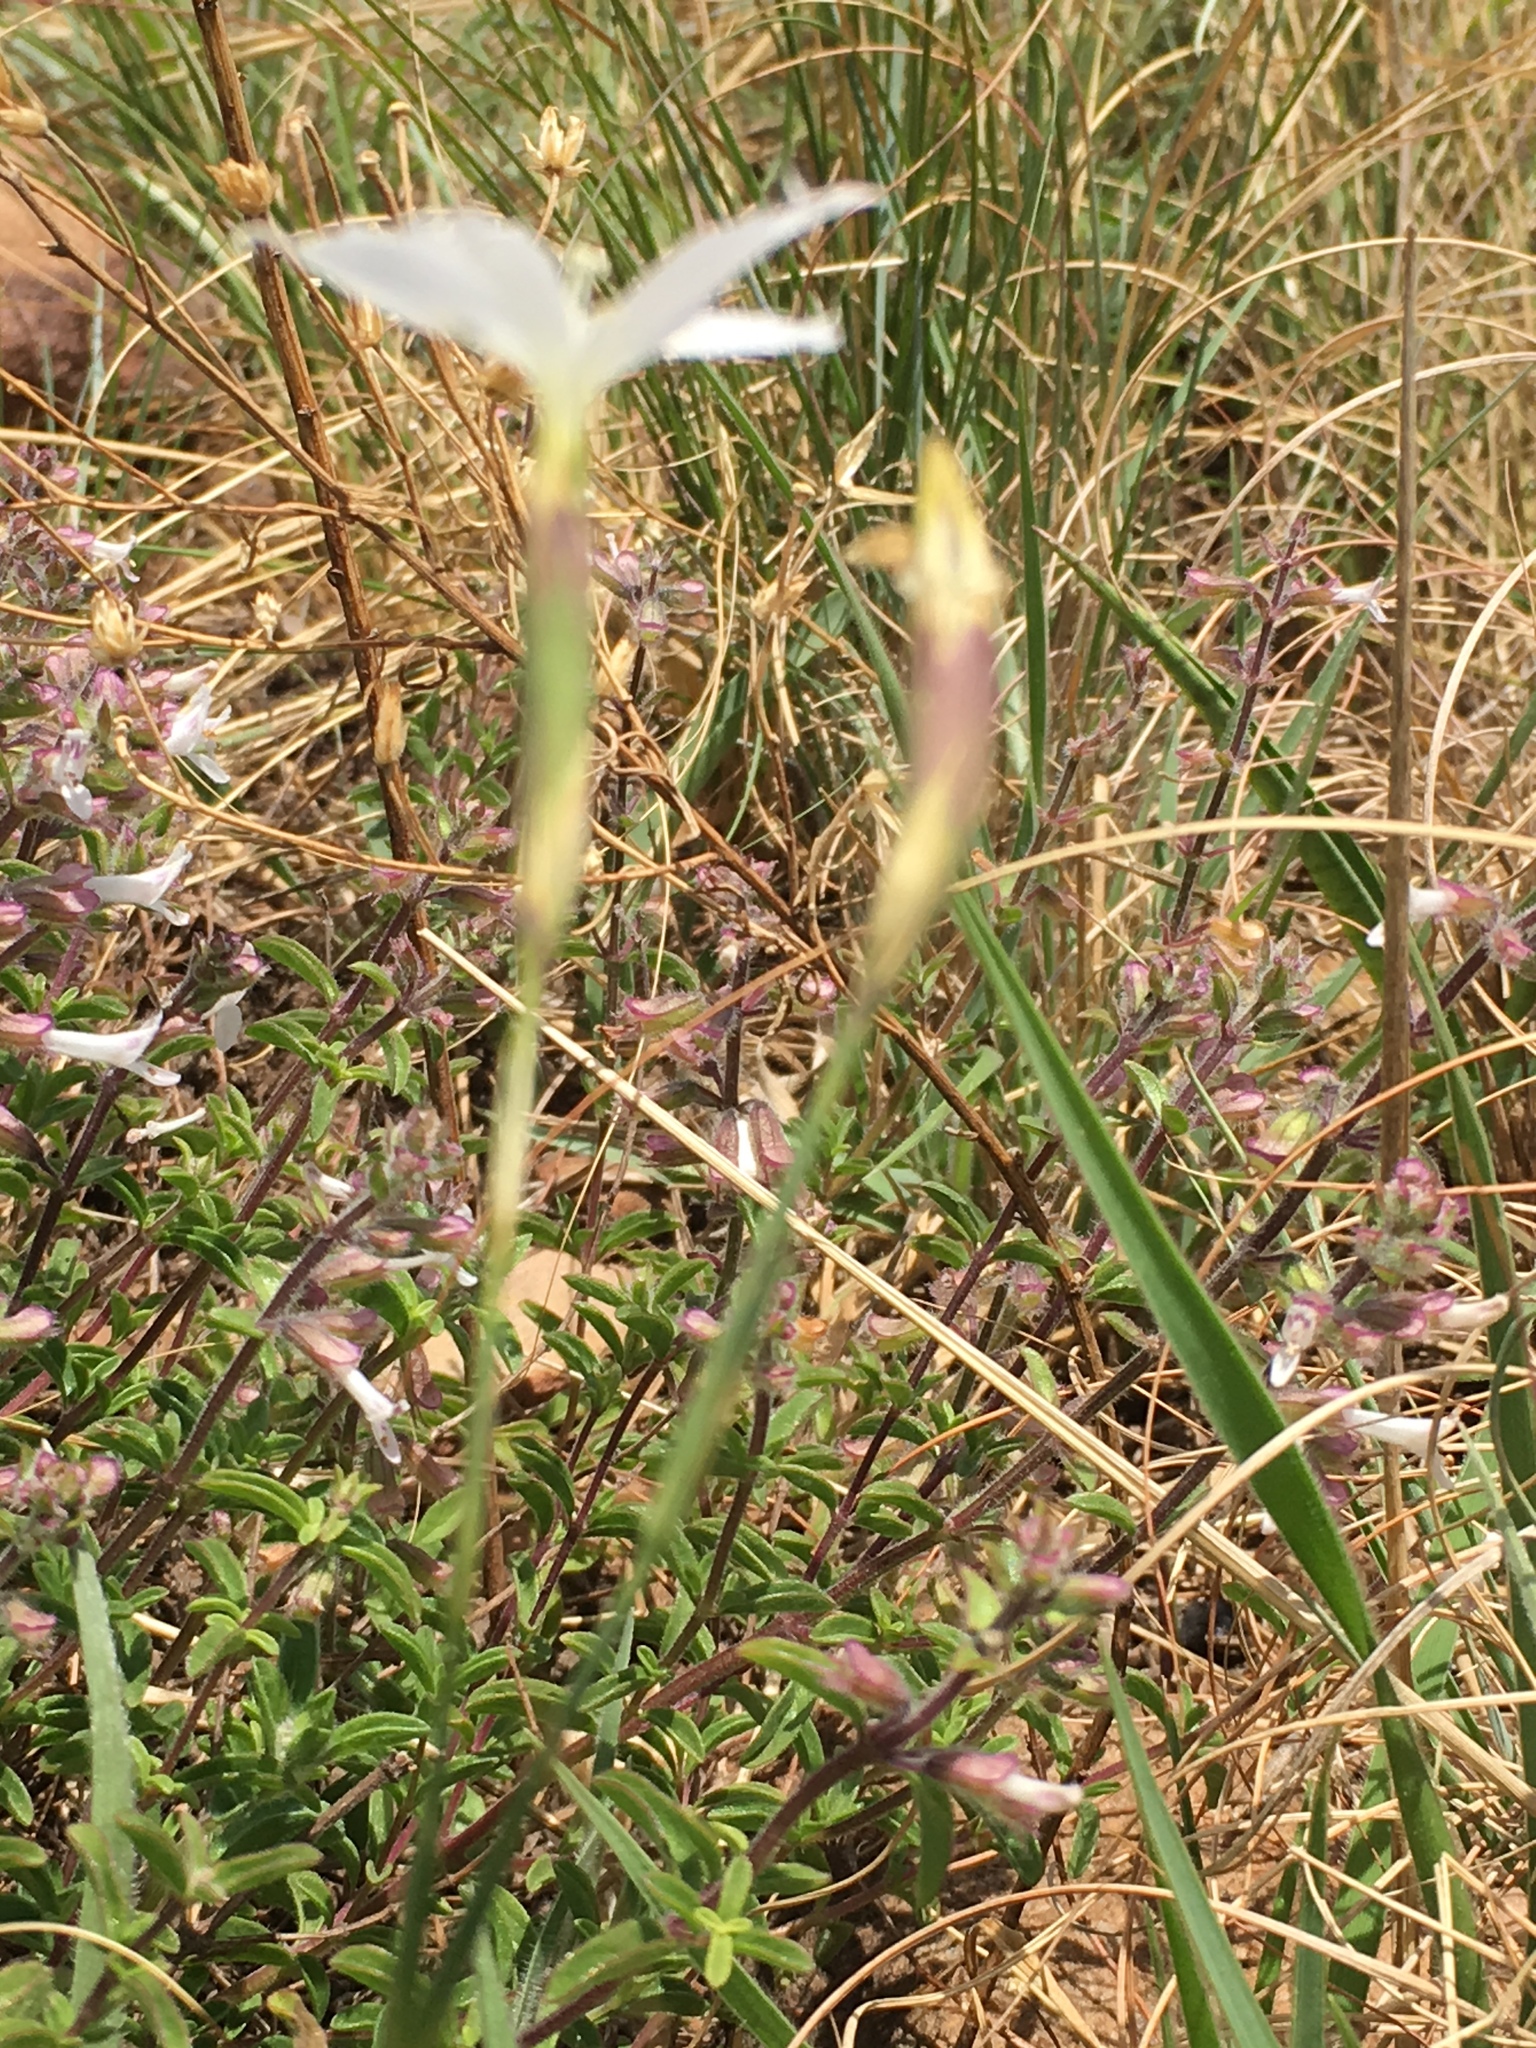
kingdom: Plantae
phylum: Tracheophyta
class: Magnoliopsida
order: Caryophyllales
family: Caryophyllaceae
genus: Dianthus
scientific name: Dianthus mooiensis
